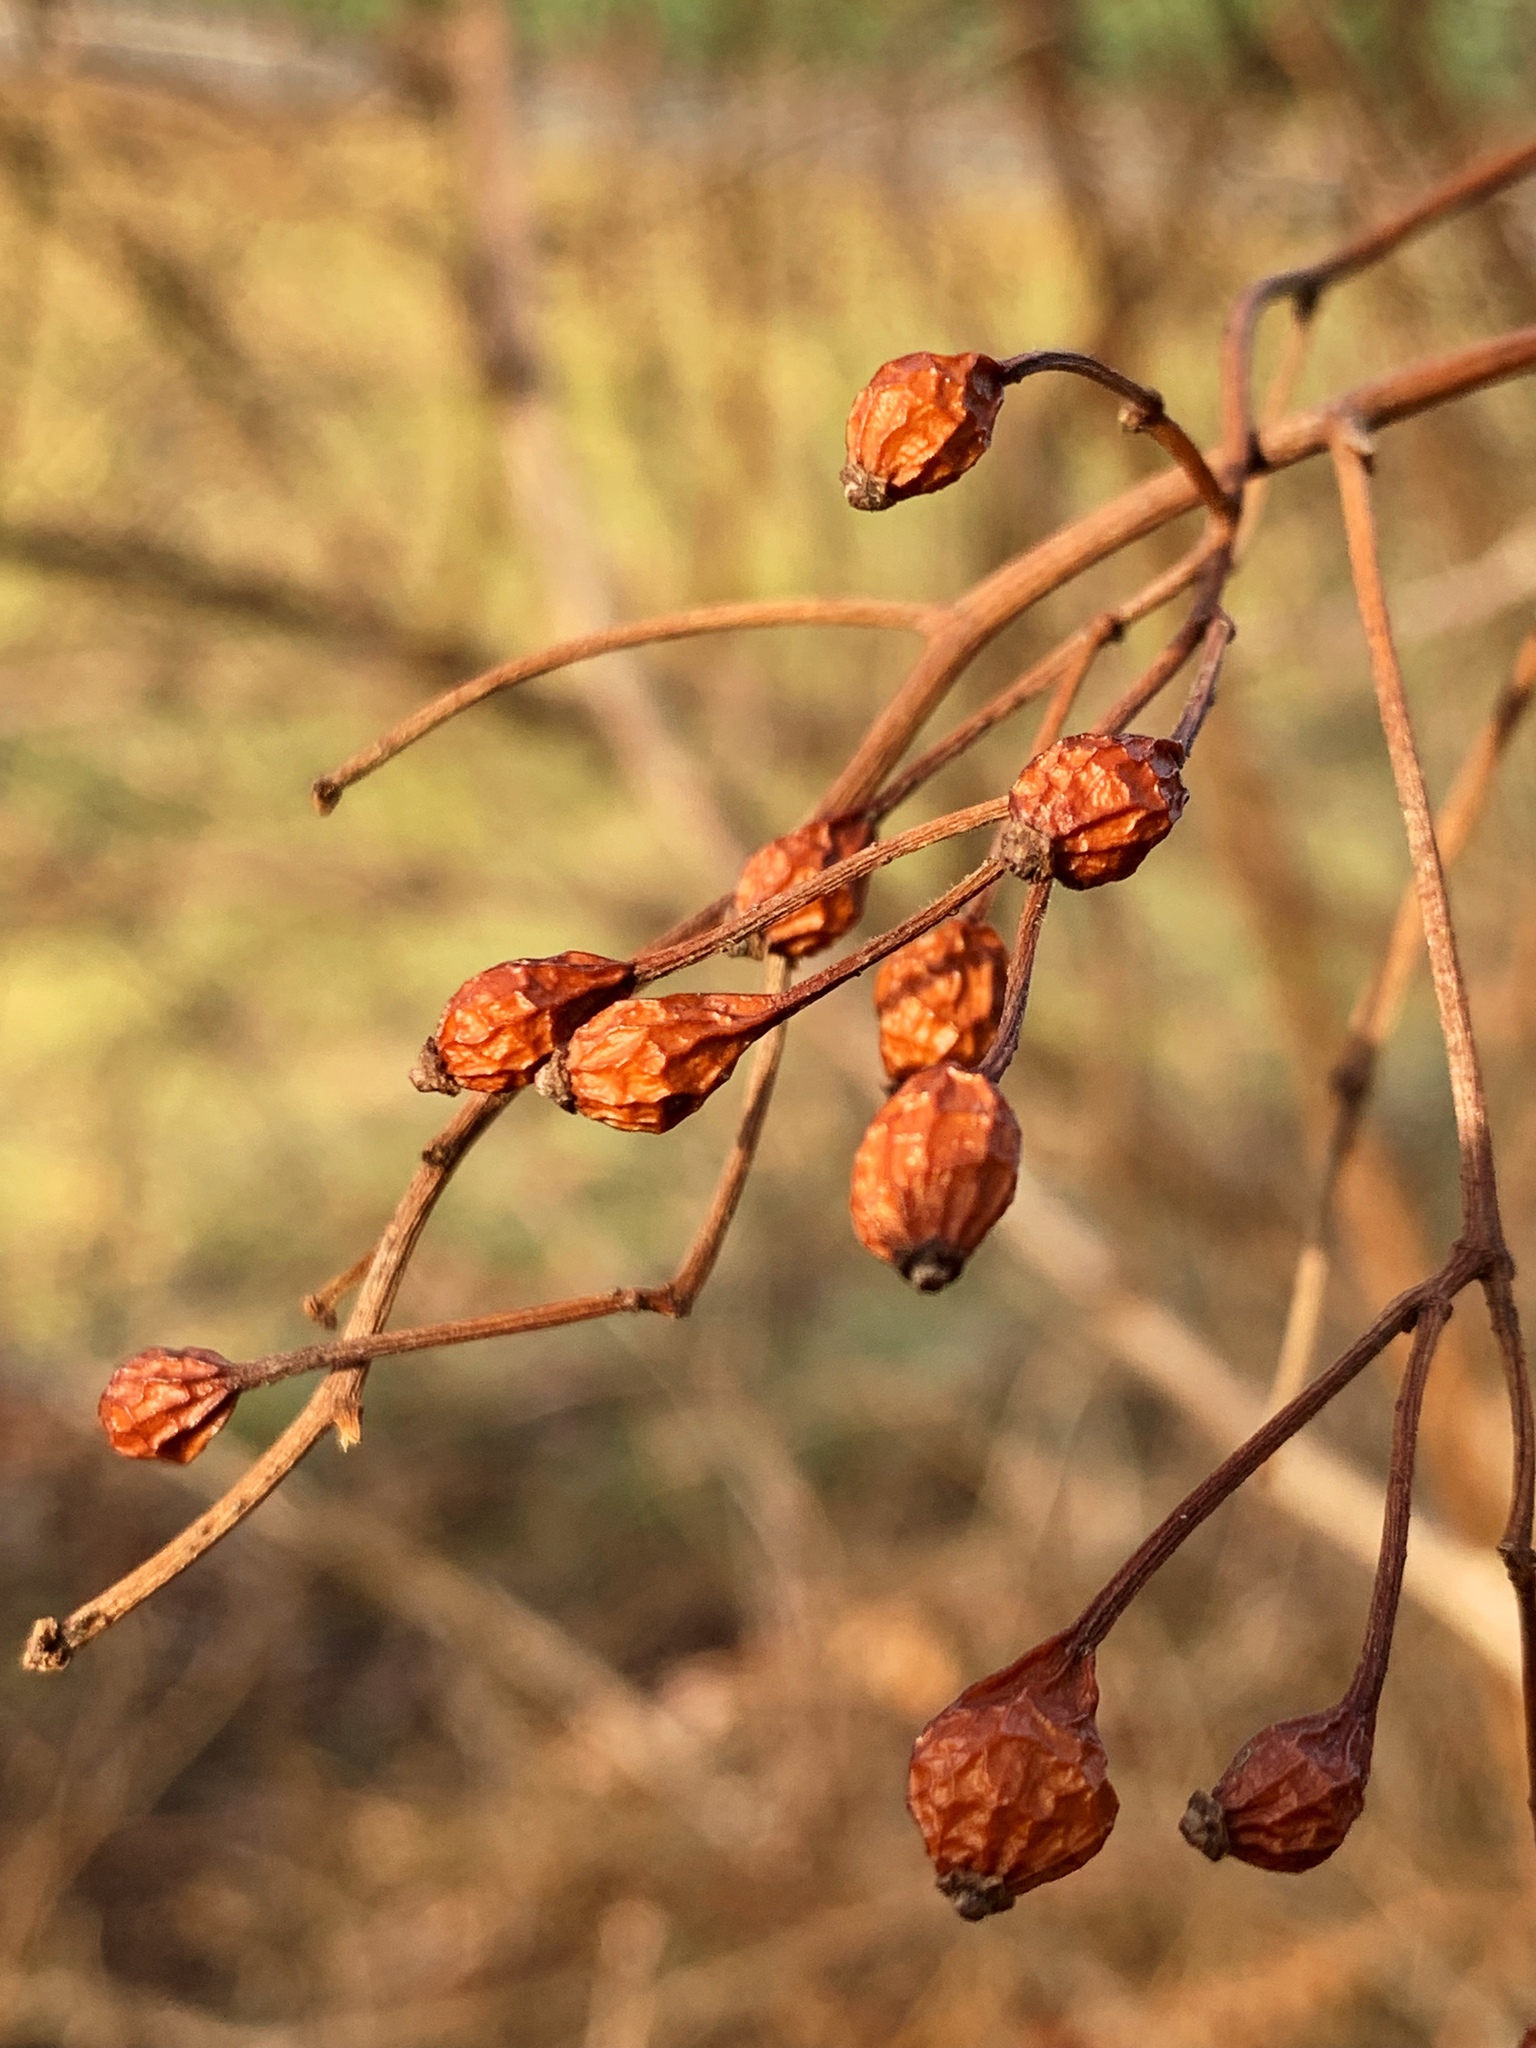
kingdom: Plantae
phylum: Tracheophyta
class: Magnoliopsida
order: Rosales
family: Rosaceae
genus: Rosa
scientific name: Rosa multiflora
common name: Multiflora rose
